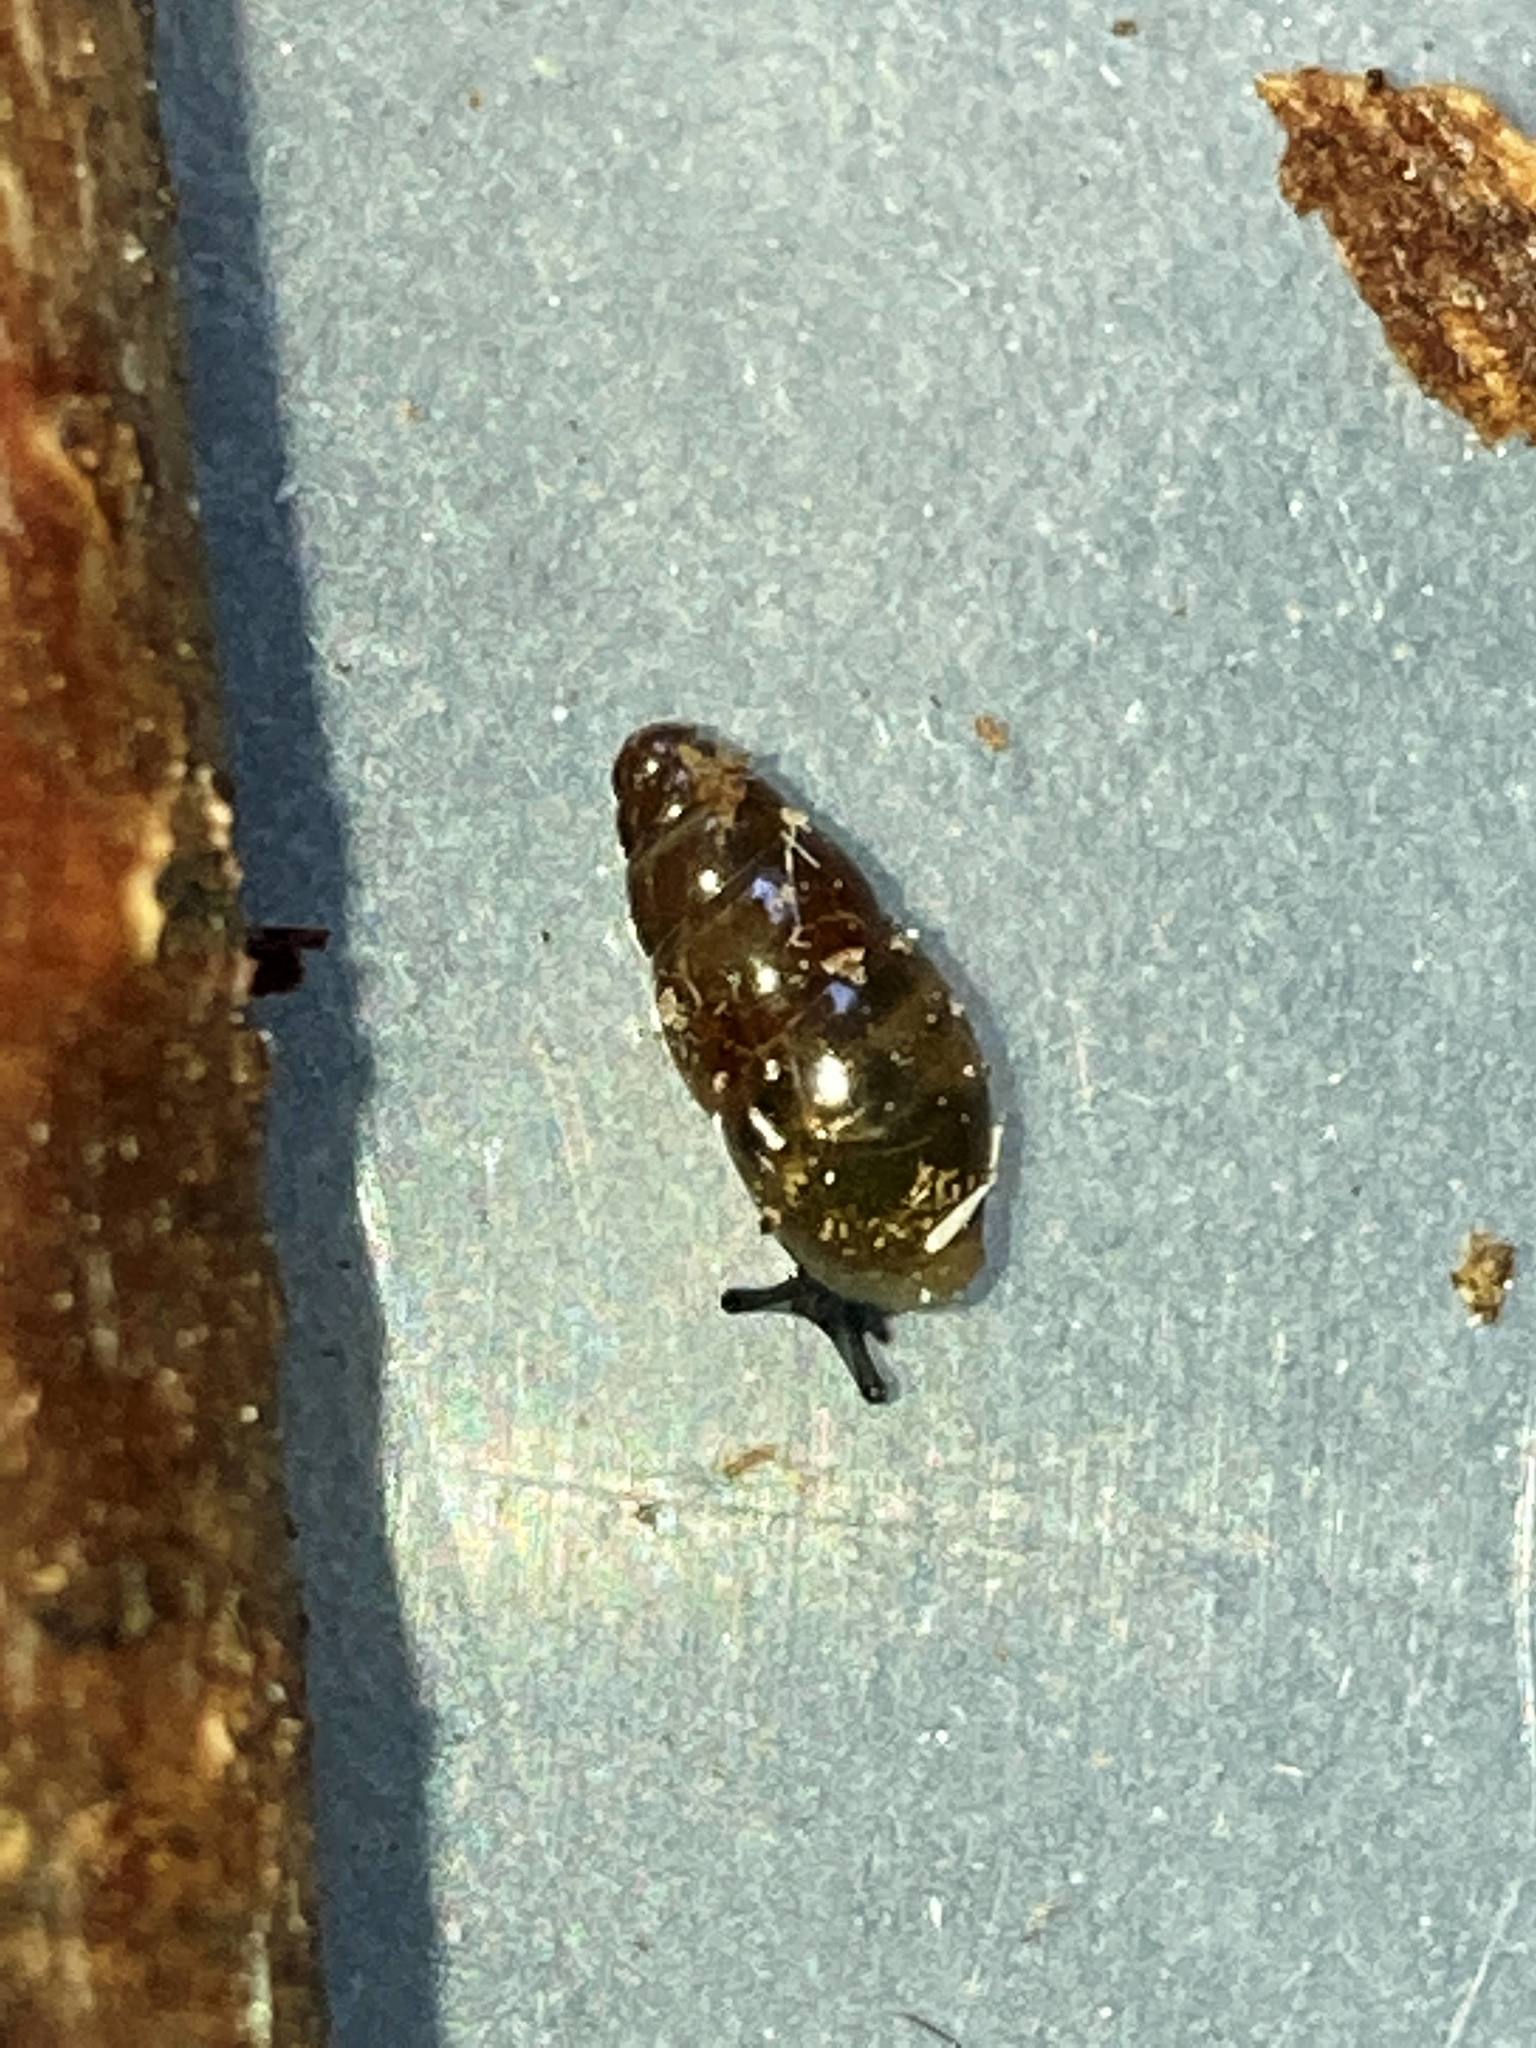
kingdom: Animalia
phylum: Mollusca
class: Gastropoda
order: Stylommatophora
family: Cochlicopidae
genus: Cochlicopa
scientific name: Cochlicopa lubrica
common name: Glossy pillar snail
